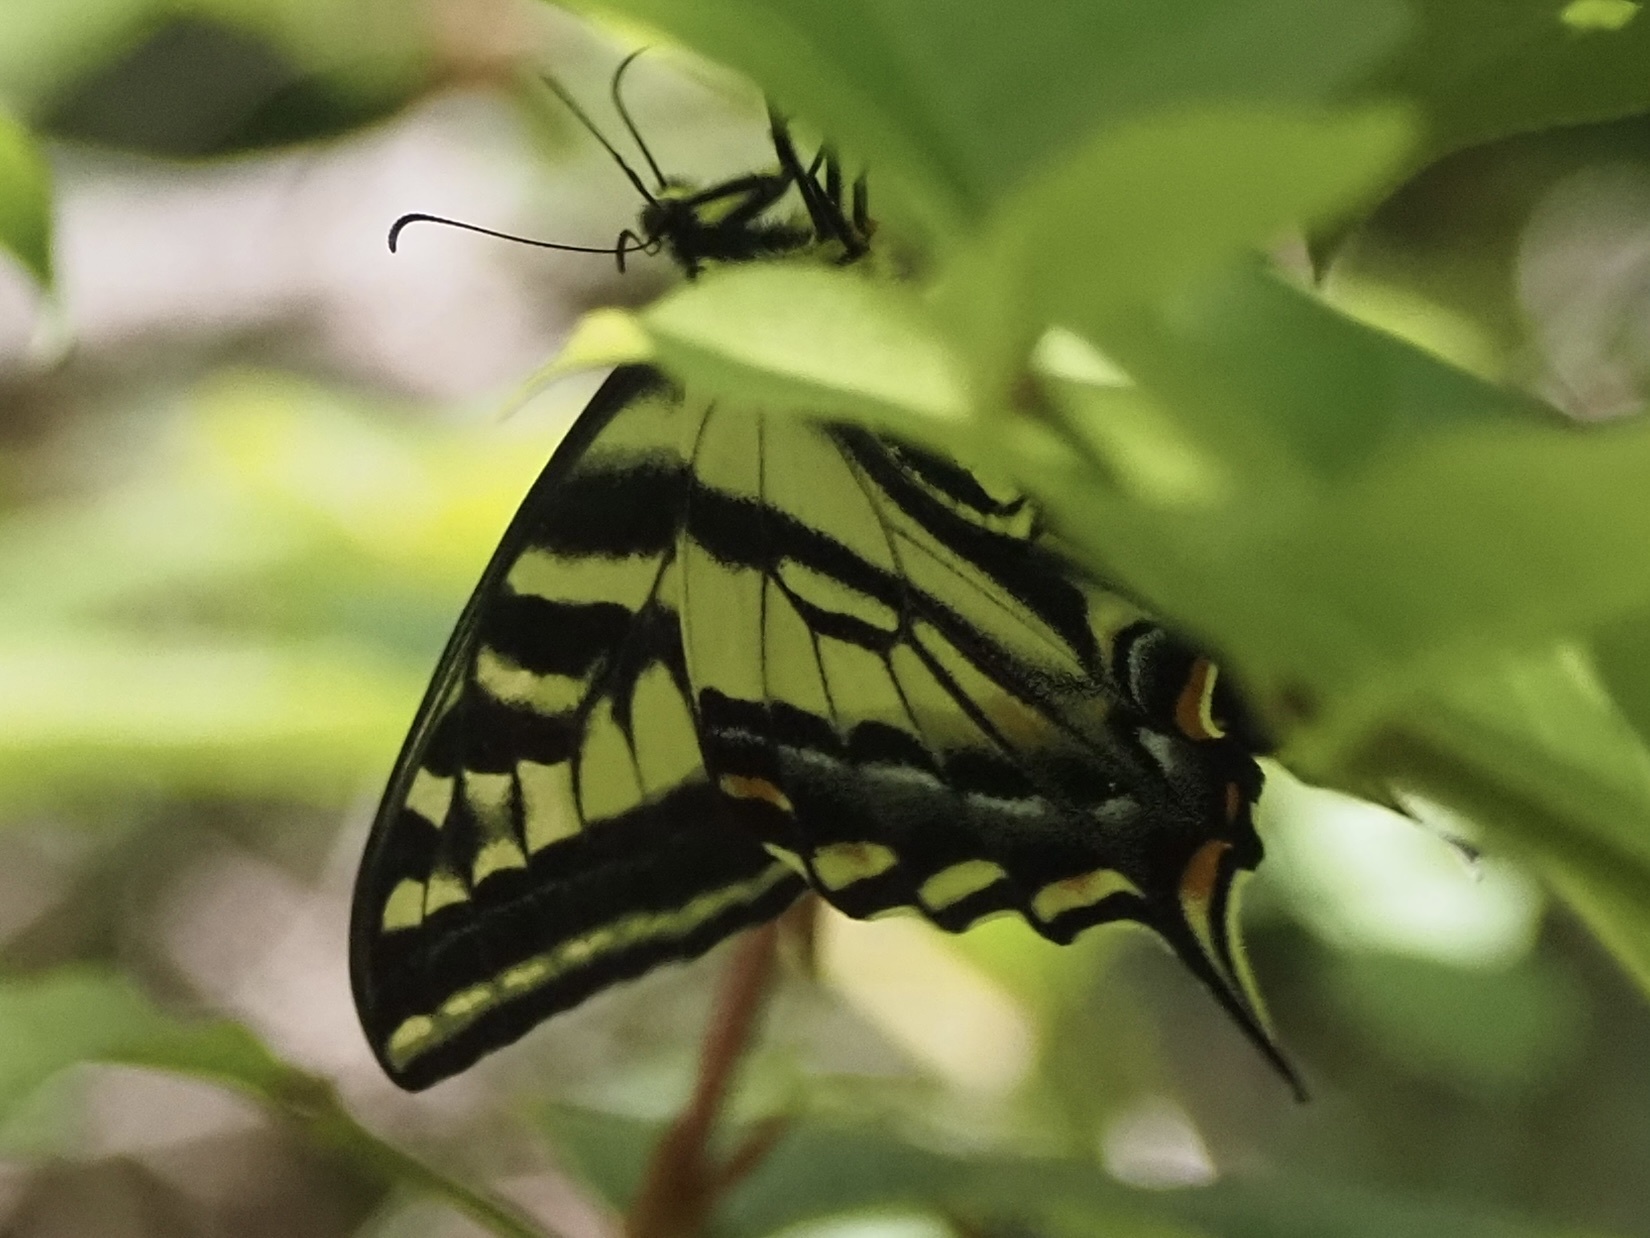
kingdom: Animalia
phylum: Arthropoda
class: Insecta
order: Lepidoptera
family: Papilionidae
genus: Papilio
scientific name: Papilio eurymedon
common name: Pale tiger swallowtail
